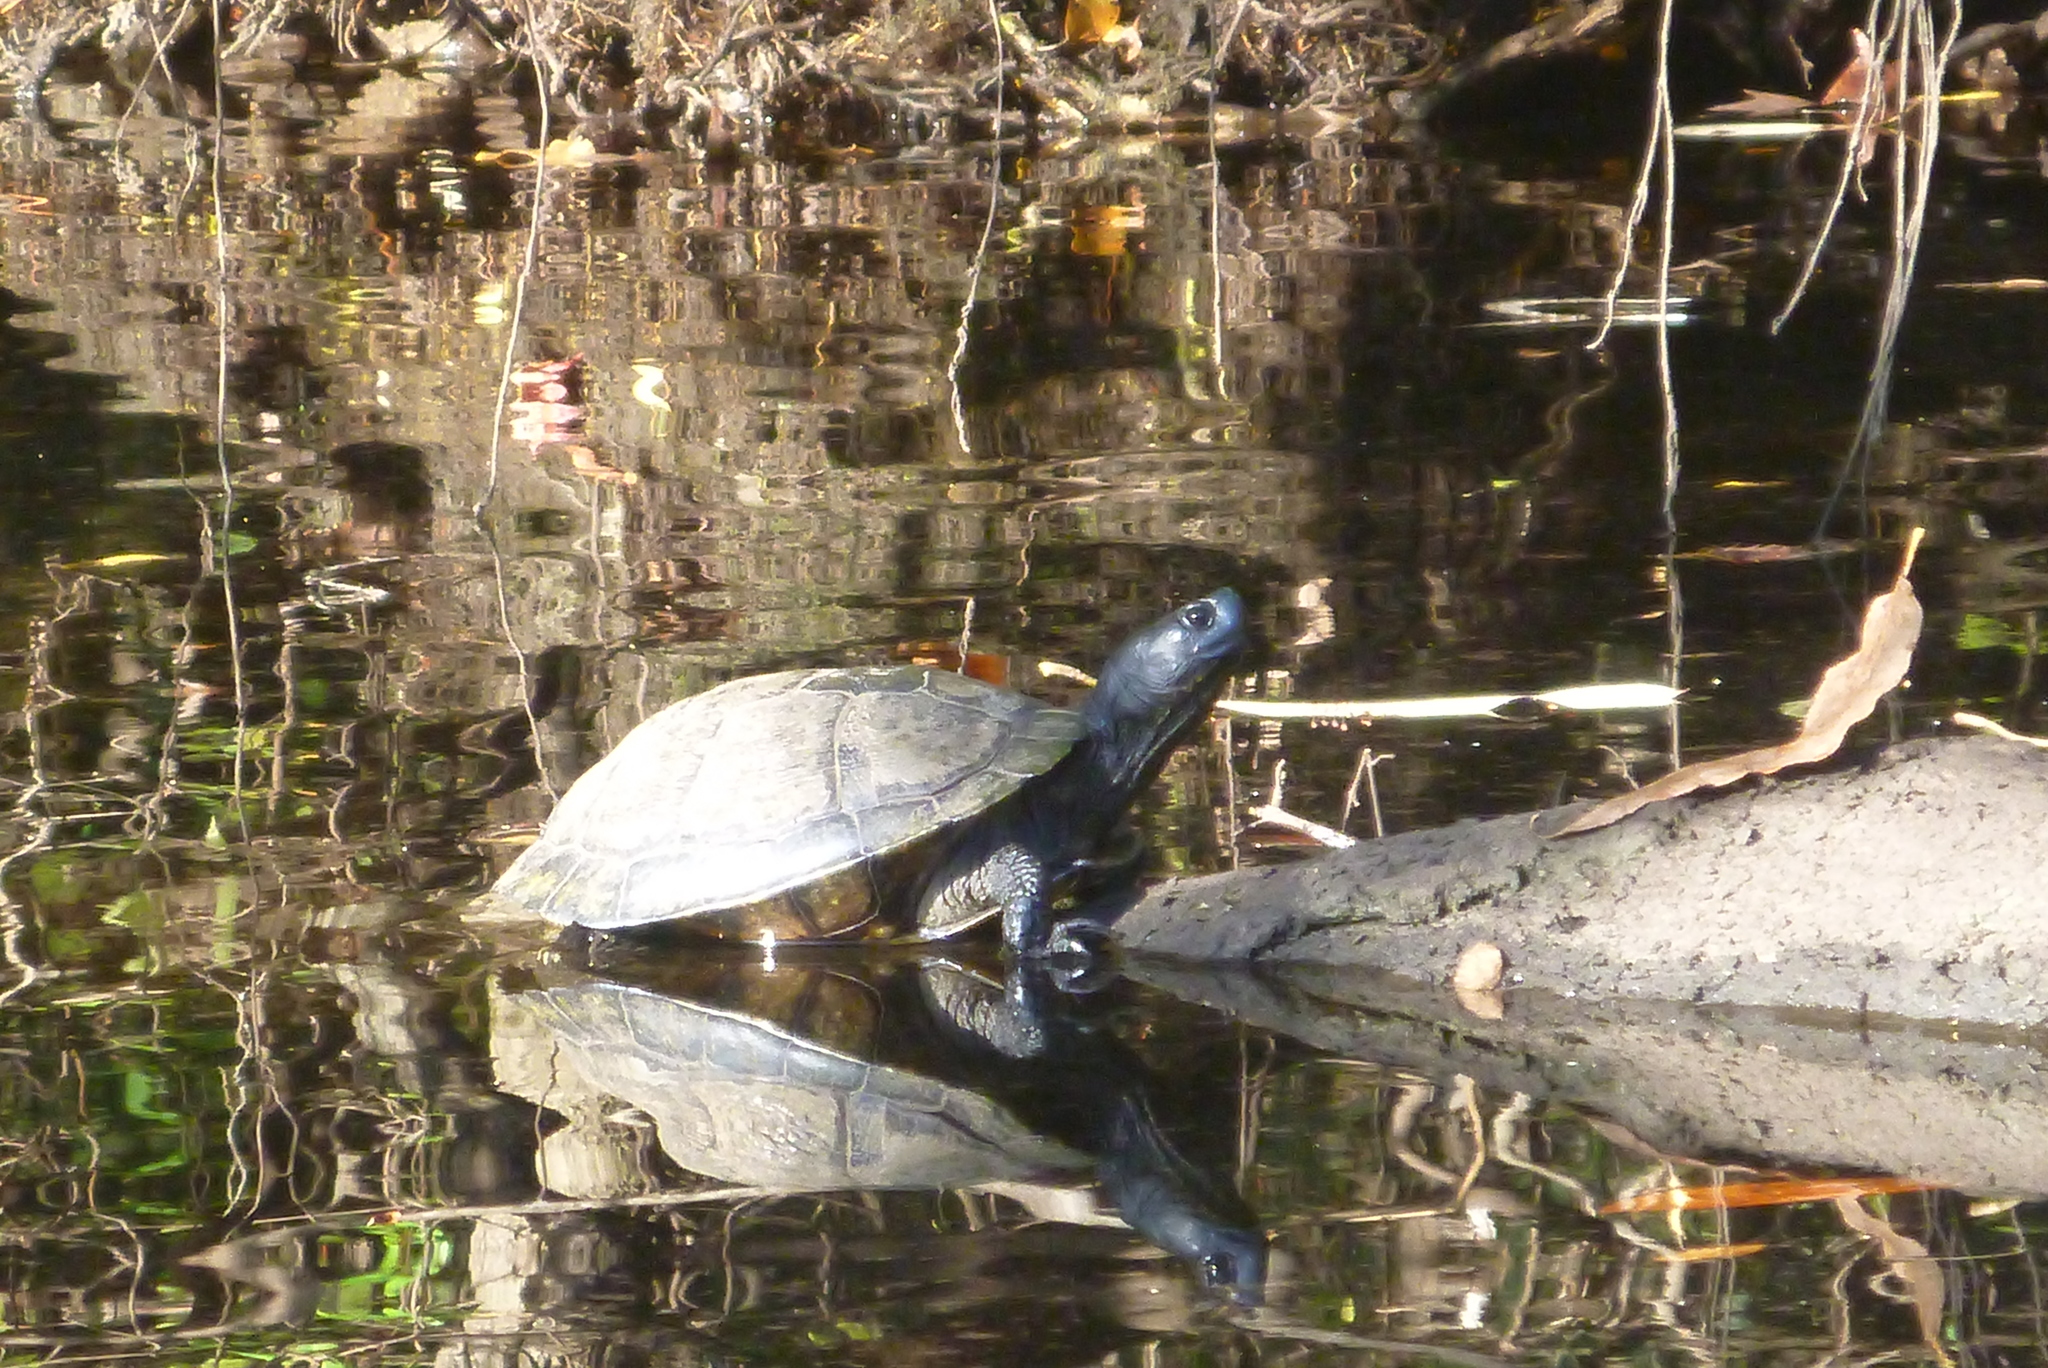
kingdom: Animalia
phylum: Chordata
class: Testudines
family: Emydidae
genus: Trachemys
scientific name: Trachemys scripta
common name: Slider
